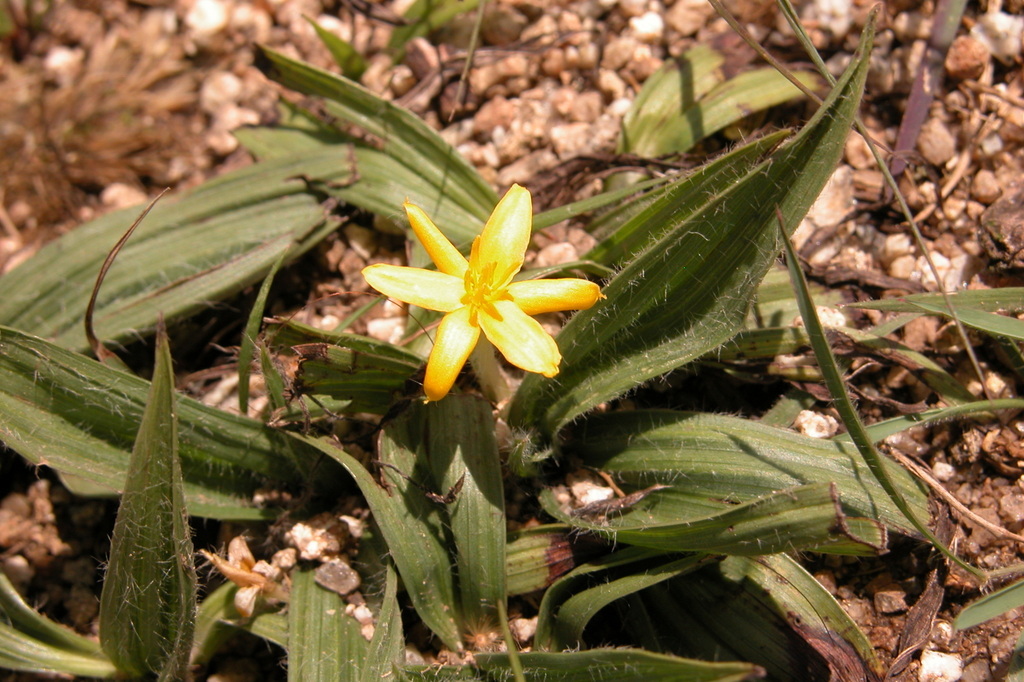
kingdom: Plantae
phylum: Tracheophyta
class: Liliopsida
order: Asparagales
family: Hypoxidaceae
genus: Curculigo
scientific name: Curculigo orchioides
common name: Golden eye-grass
